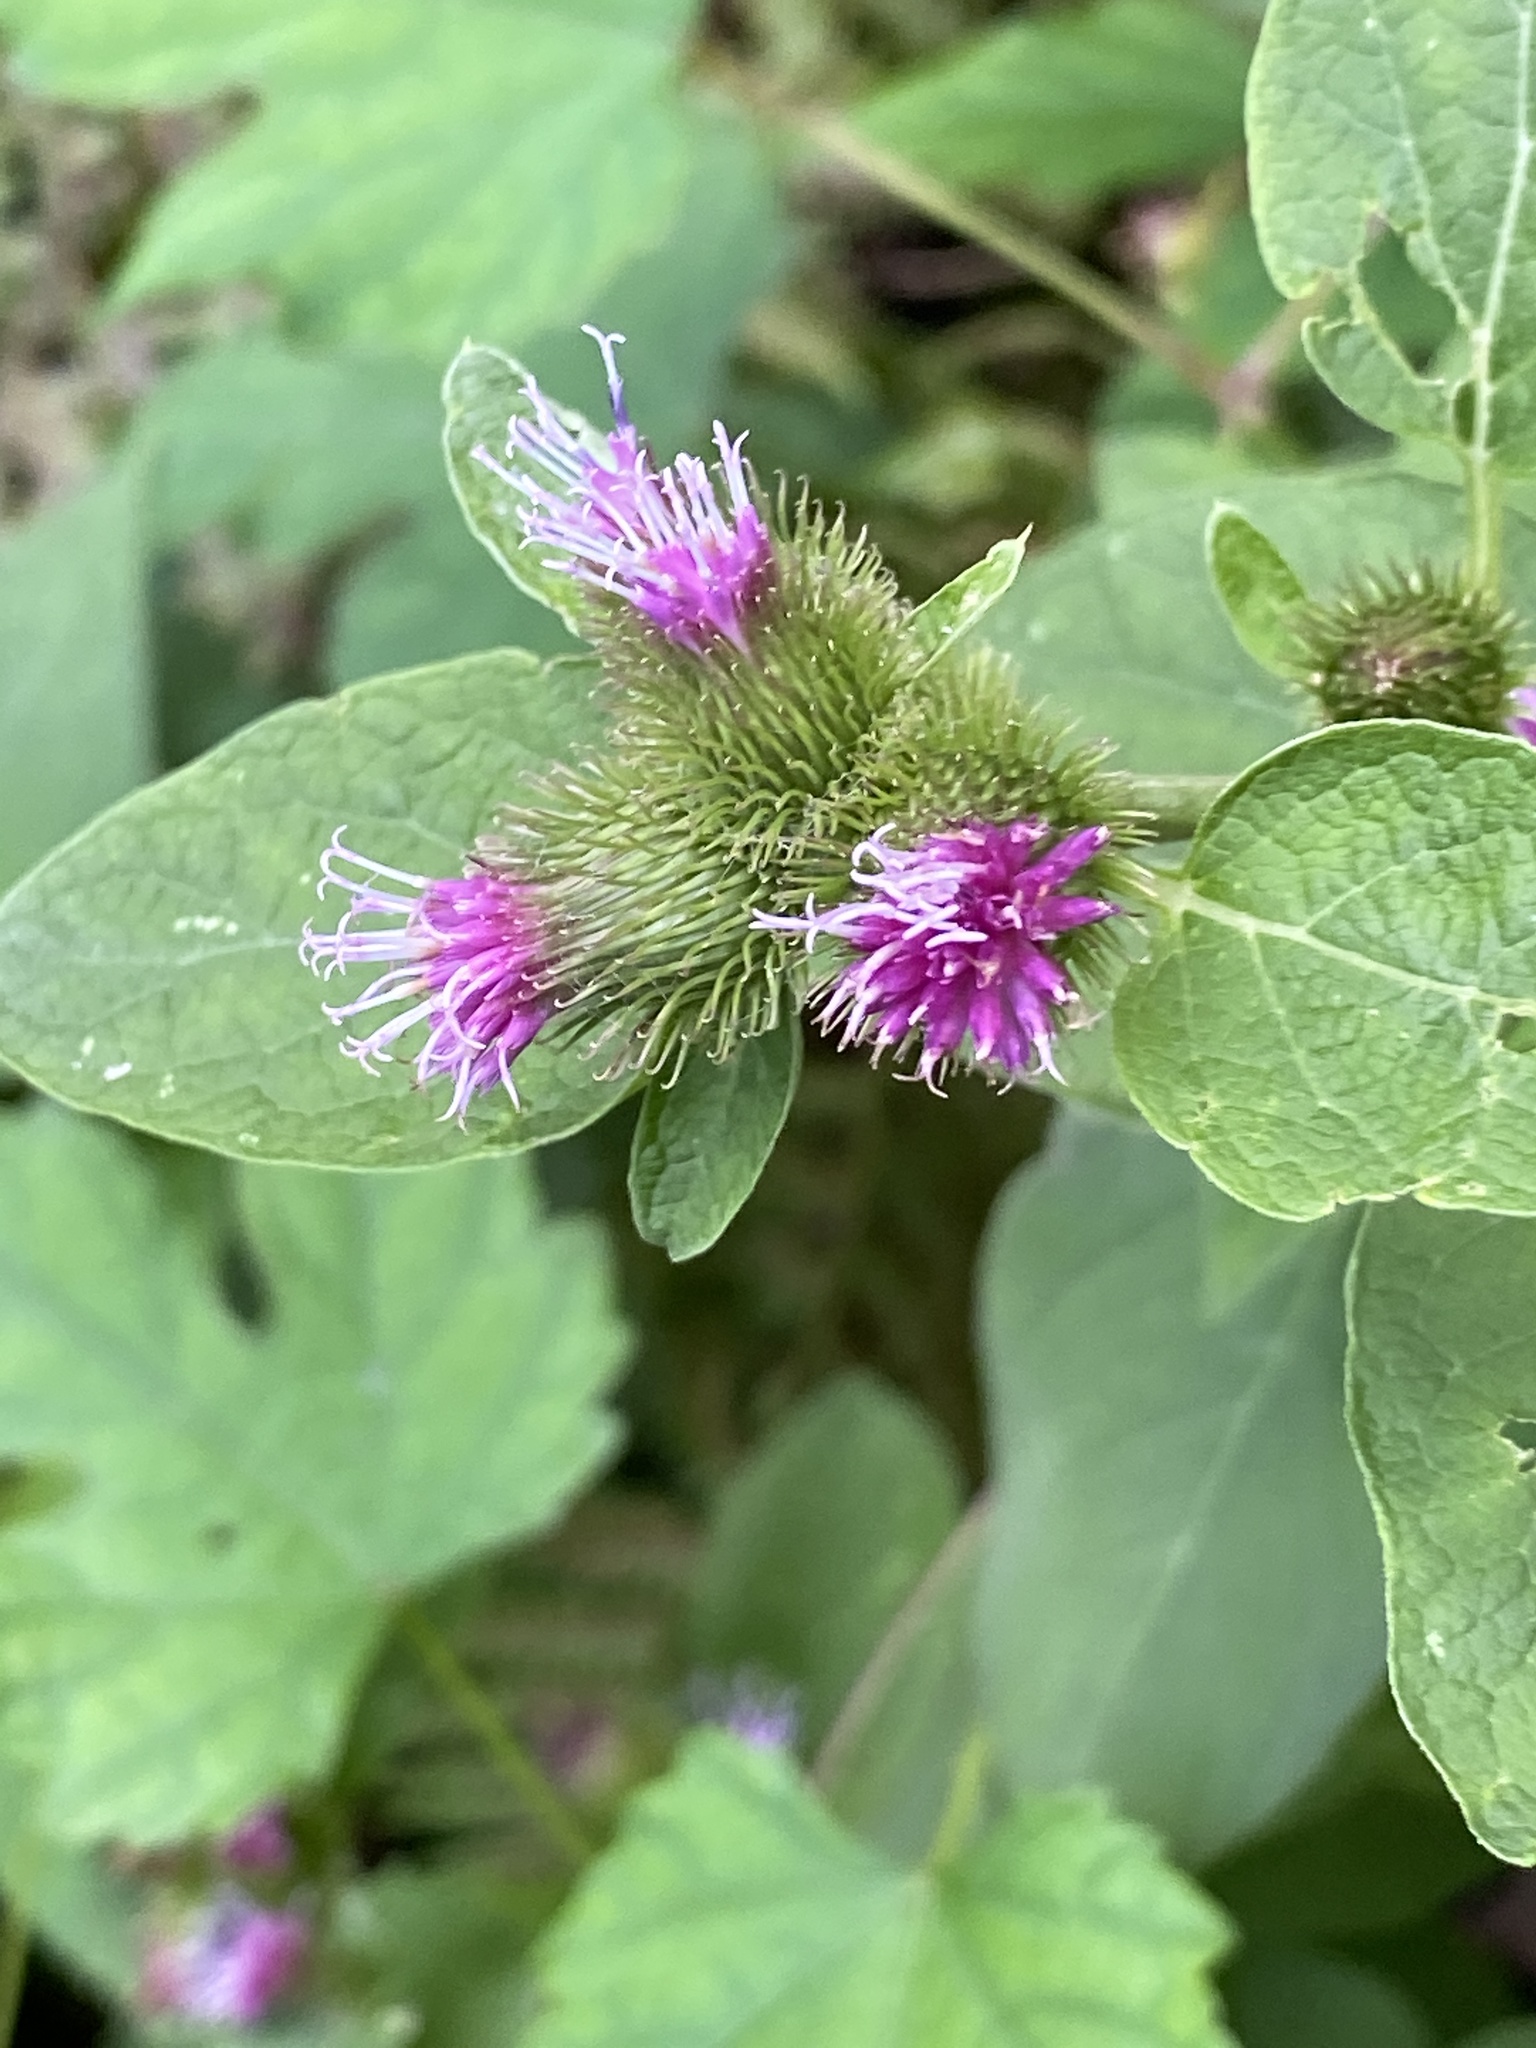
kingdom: Plantae
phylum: Tracheophyta
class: Magnoliopsida
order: Asterales
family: Asteraceae
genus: Arctium
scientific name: Arctium minus
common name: Lesser burdock
